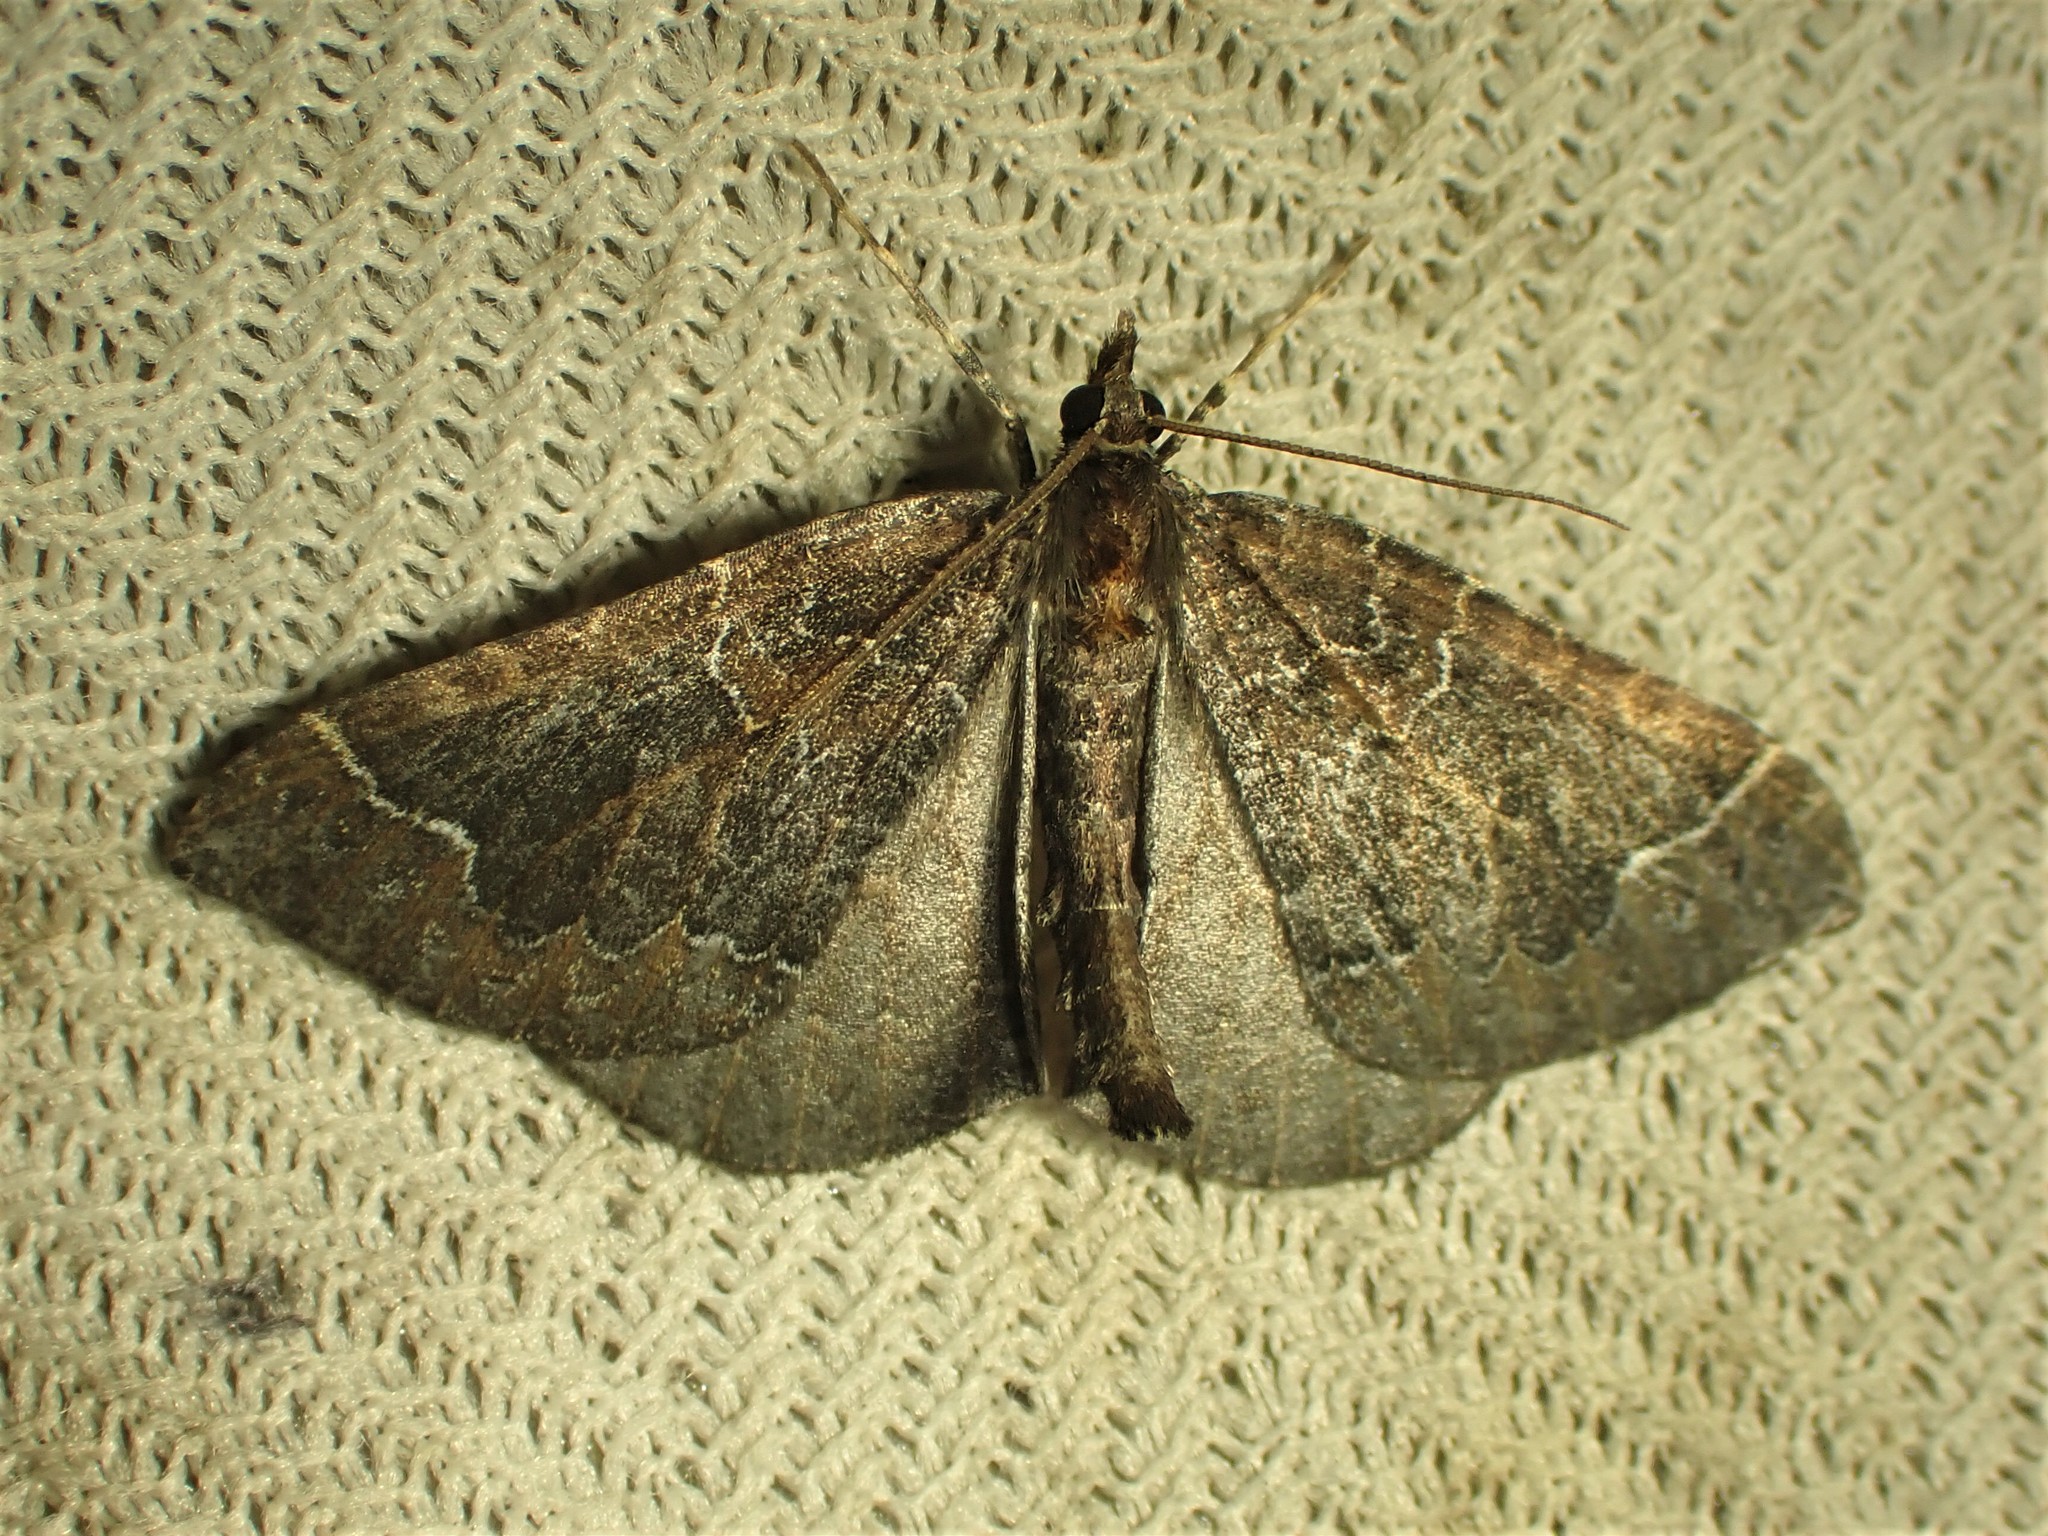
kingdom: Animalia
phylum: Arthropoda
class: Insecta
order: Lepidoptera
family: Geometridae
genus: Eulithis
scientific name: Eulithis flavibrunneata
